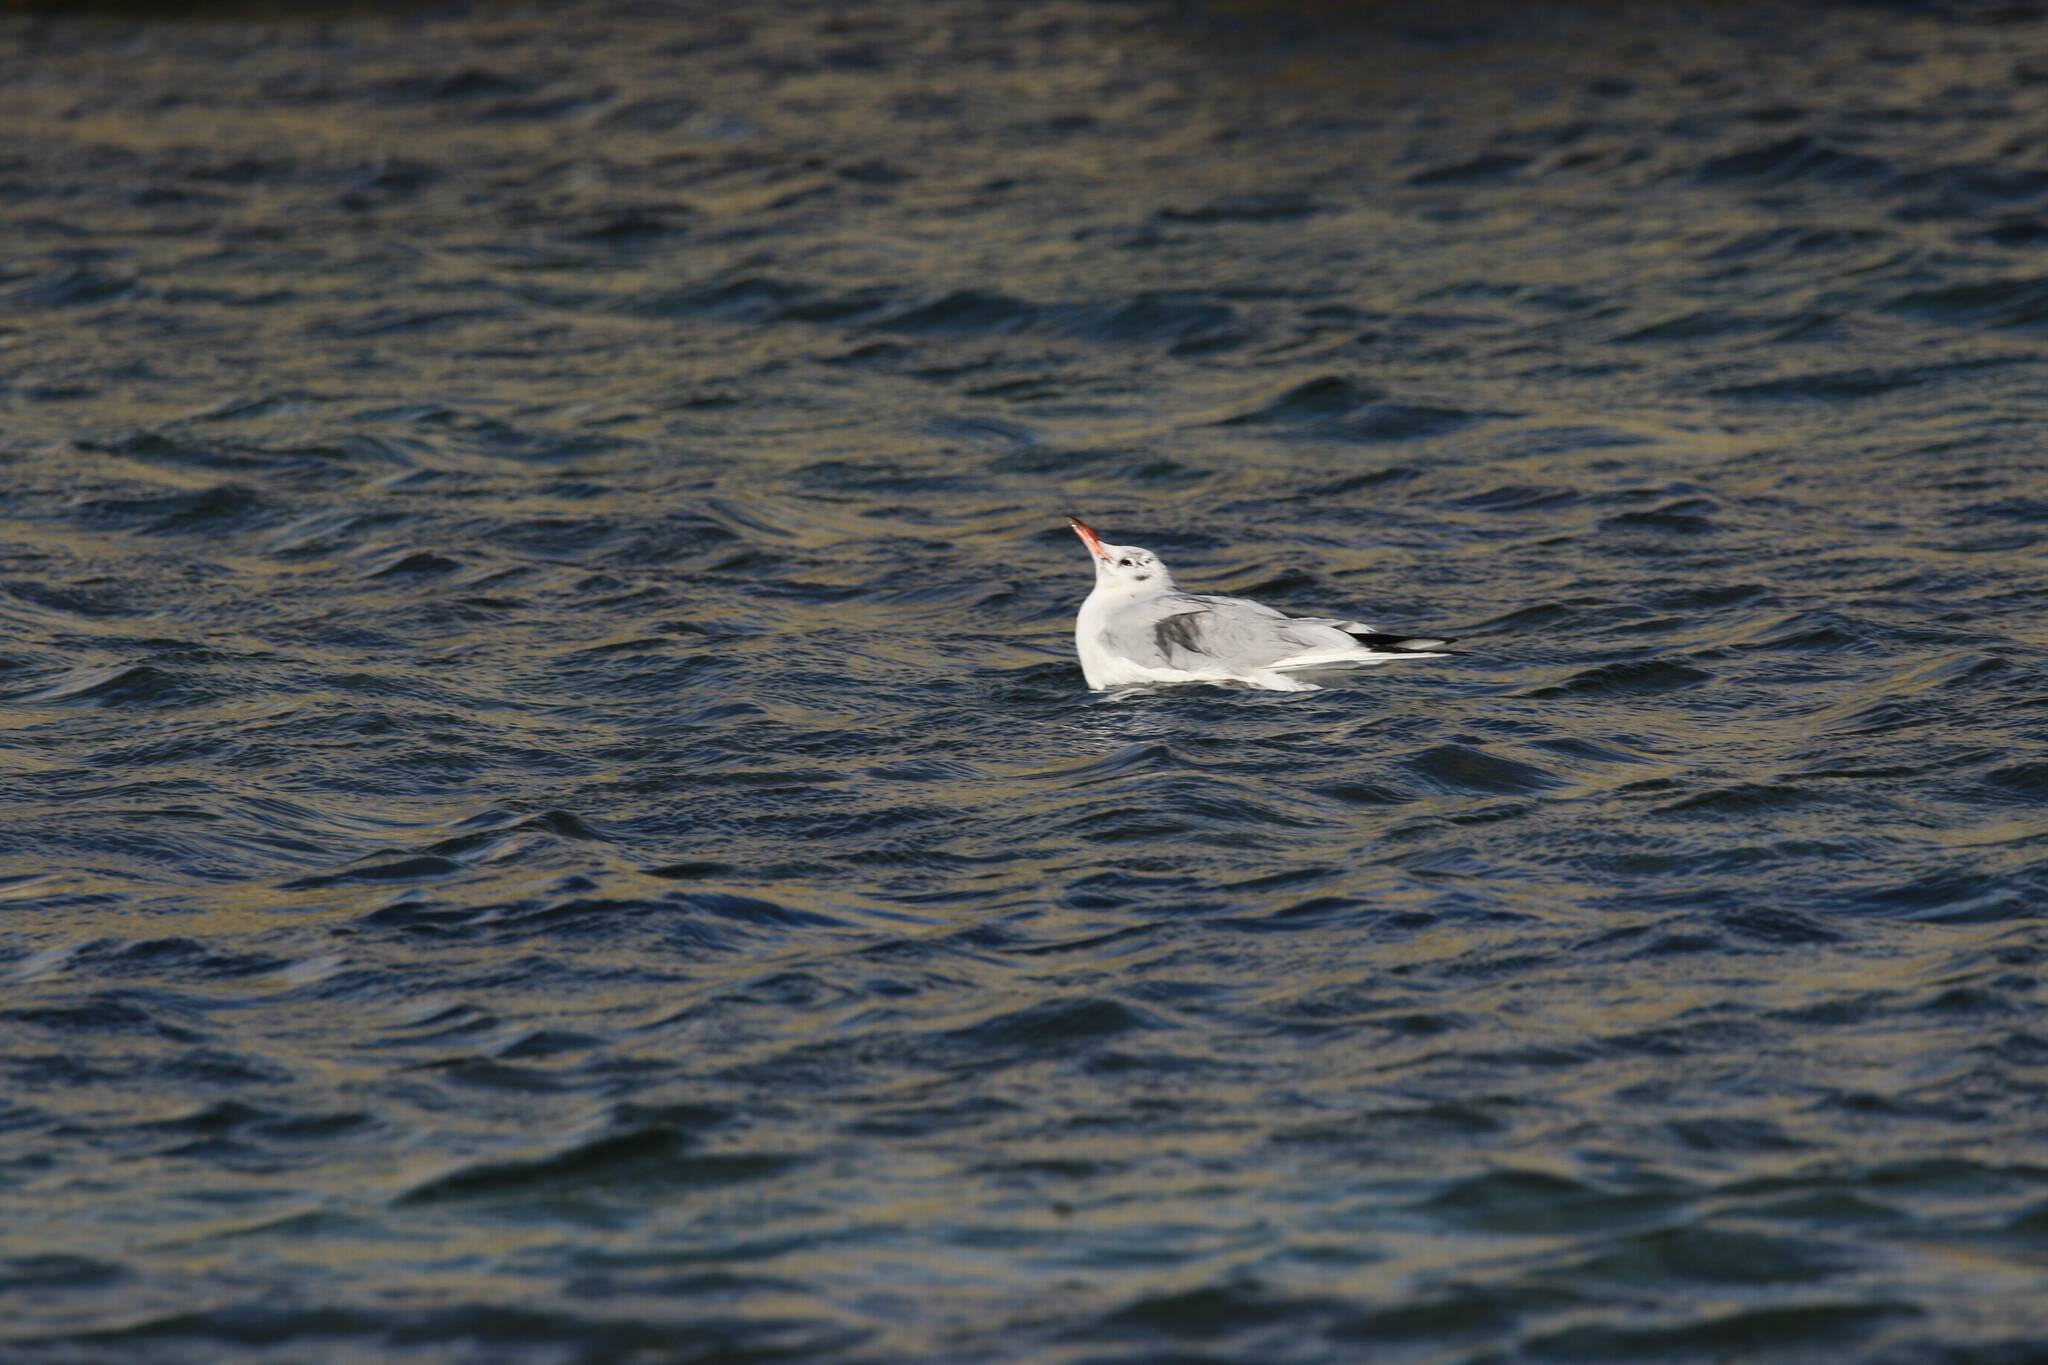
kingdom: Animalia
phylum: Chordata
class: Aves
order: Charadriiformes
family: Laridae
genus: Chroicocephalus
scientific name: Chroicocephalus ridibundus
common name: Black-headed gull
